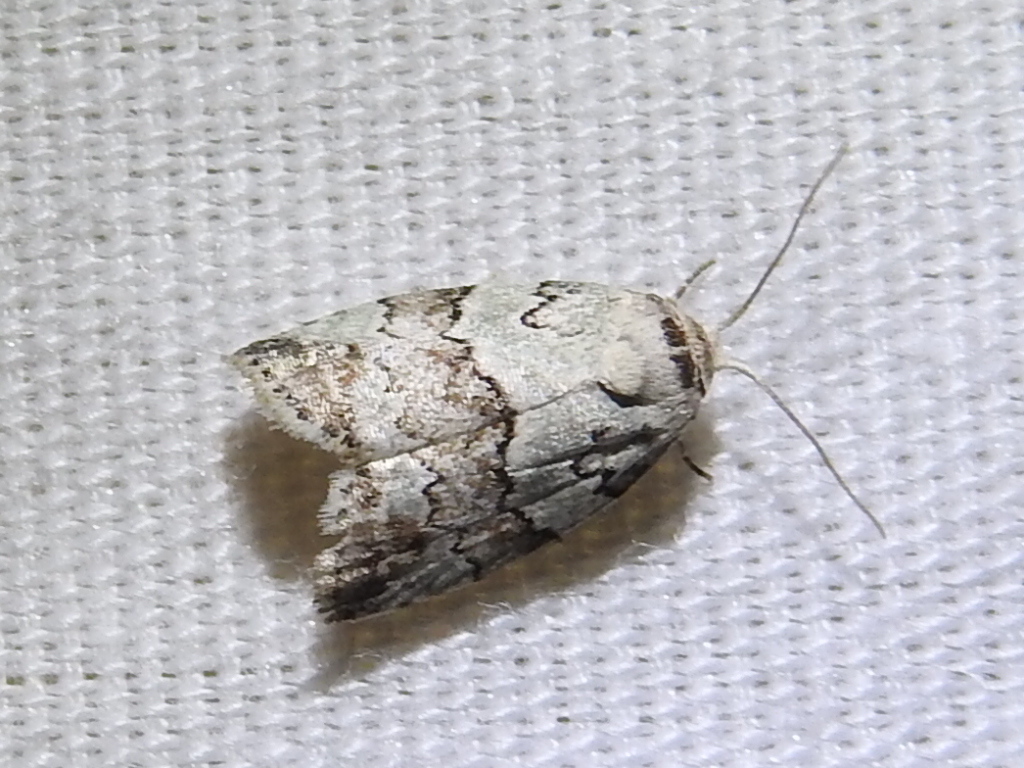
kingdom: Animalia
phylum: Arthropoda
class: Insecta
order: Lepidoptera
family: Nolidae
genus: Afrida
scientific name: Afrida ydatodes
